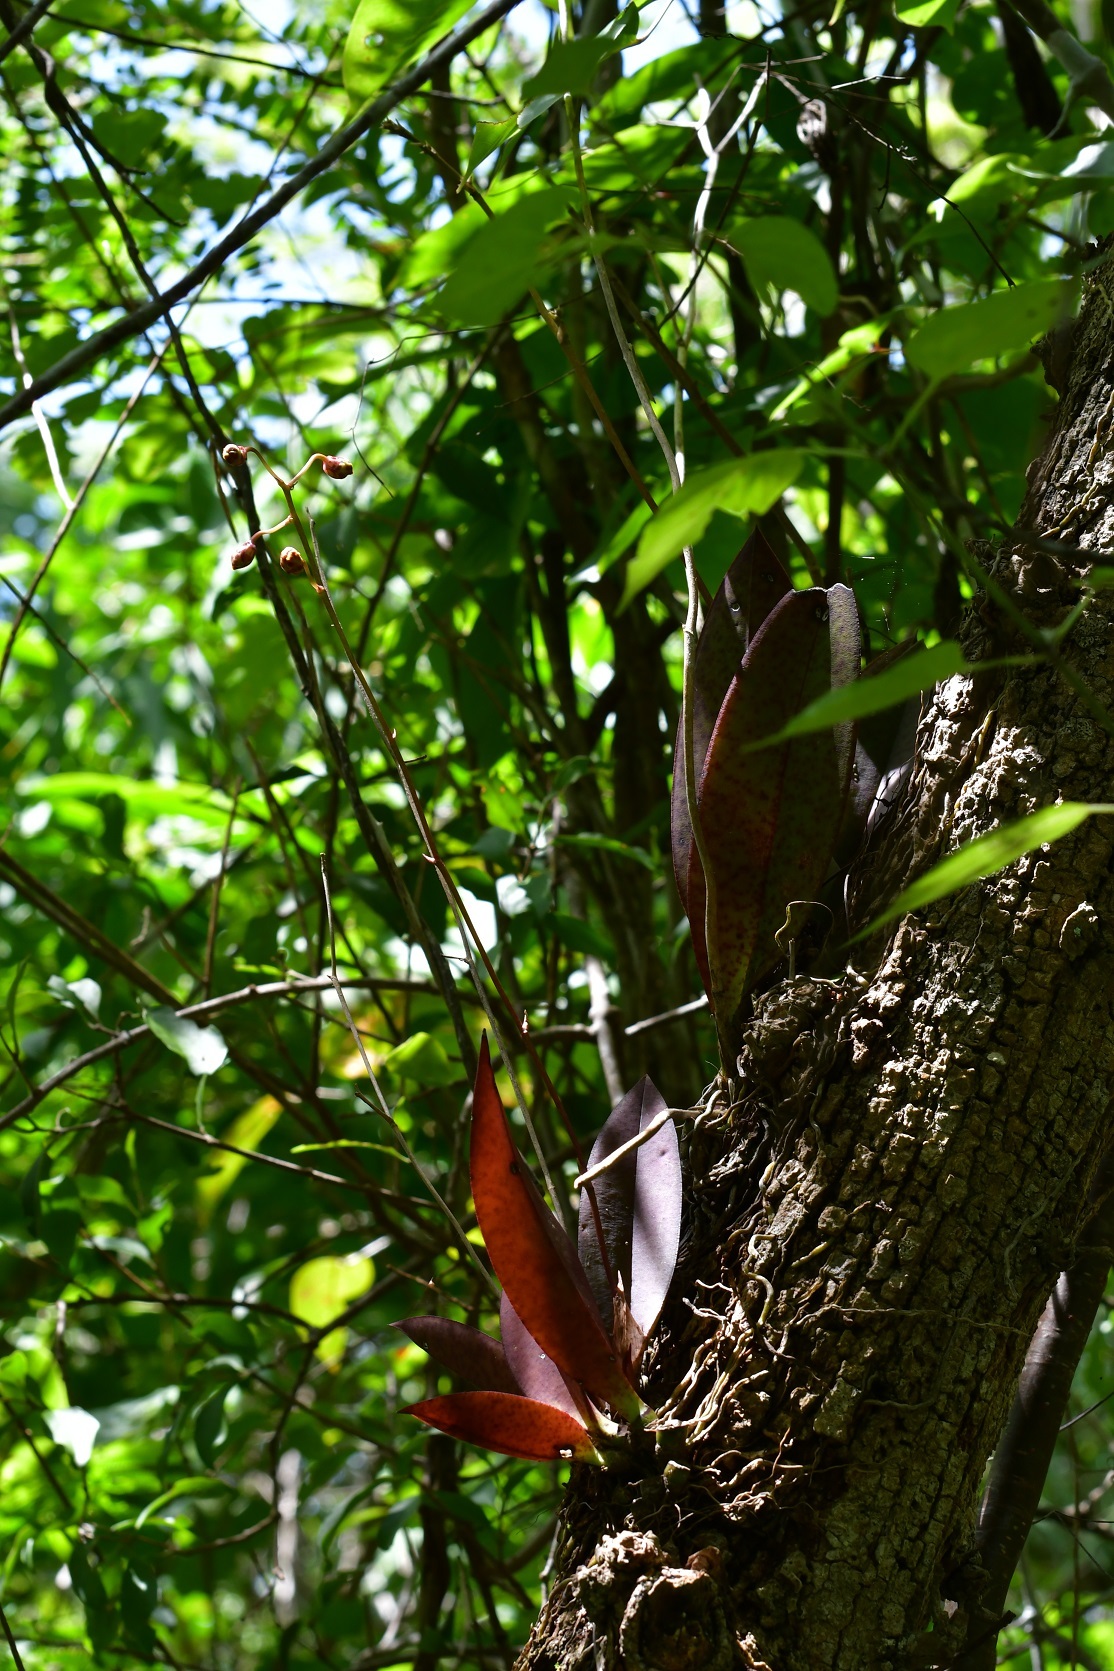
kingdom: Plantae
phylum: Tracheophyta
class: Liliopsida
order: Asparagales
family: Orchidaceae
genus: Trichocentrum
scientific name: Trichocentrum andreanum
